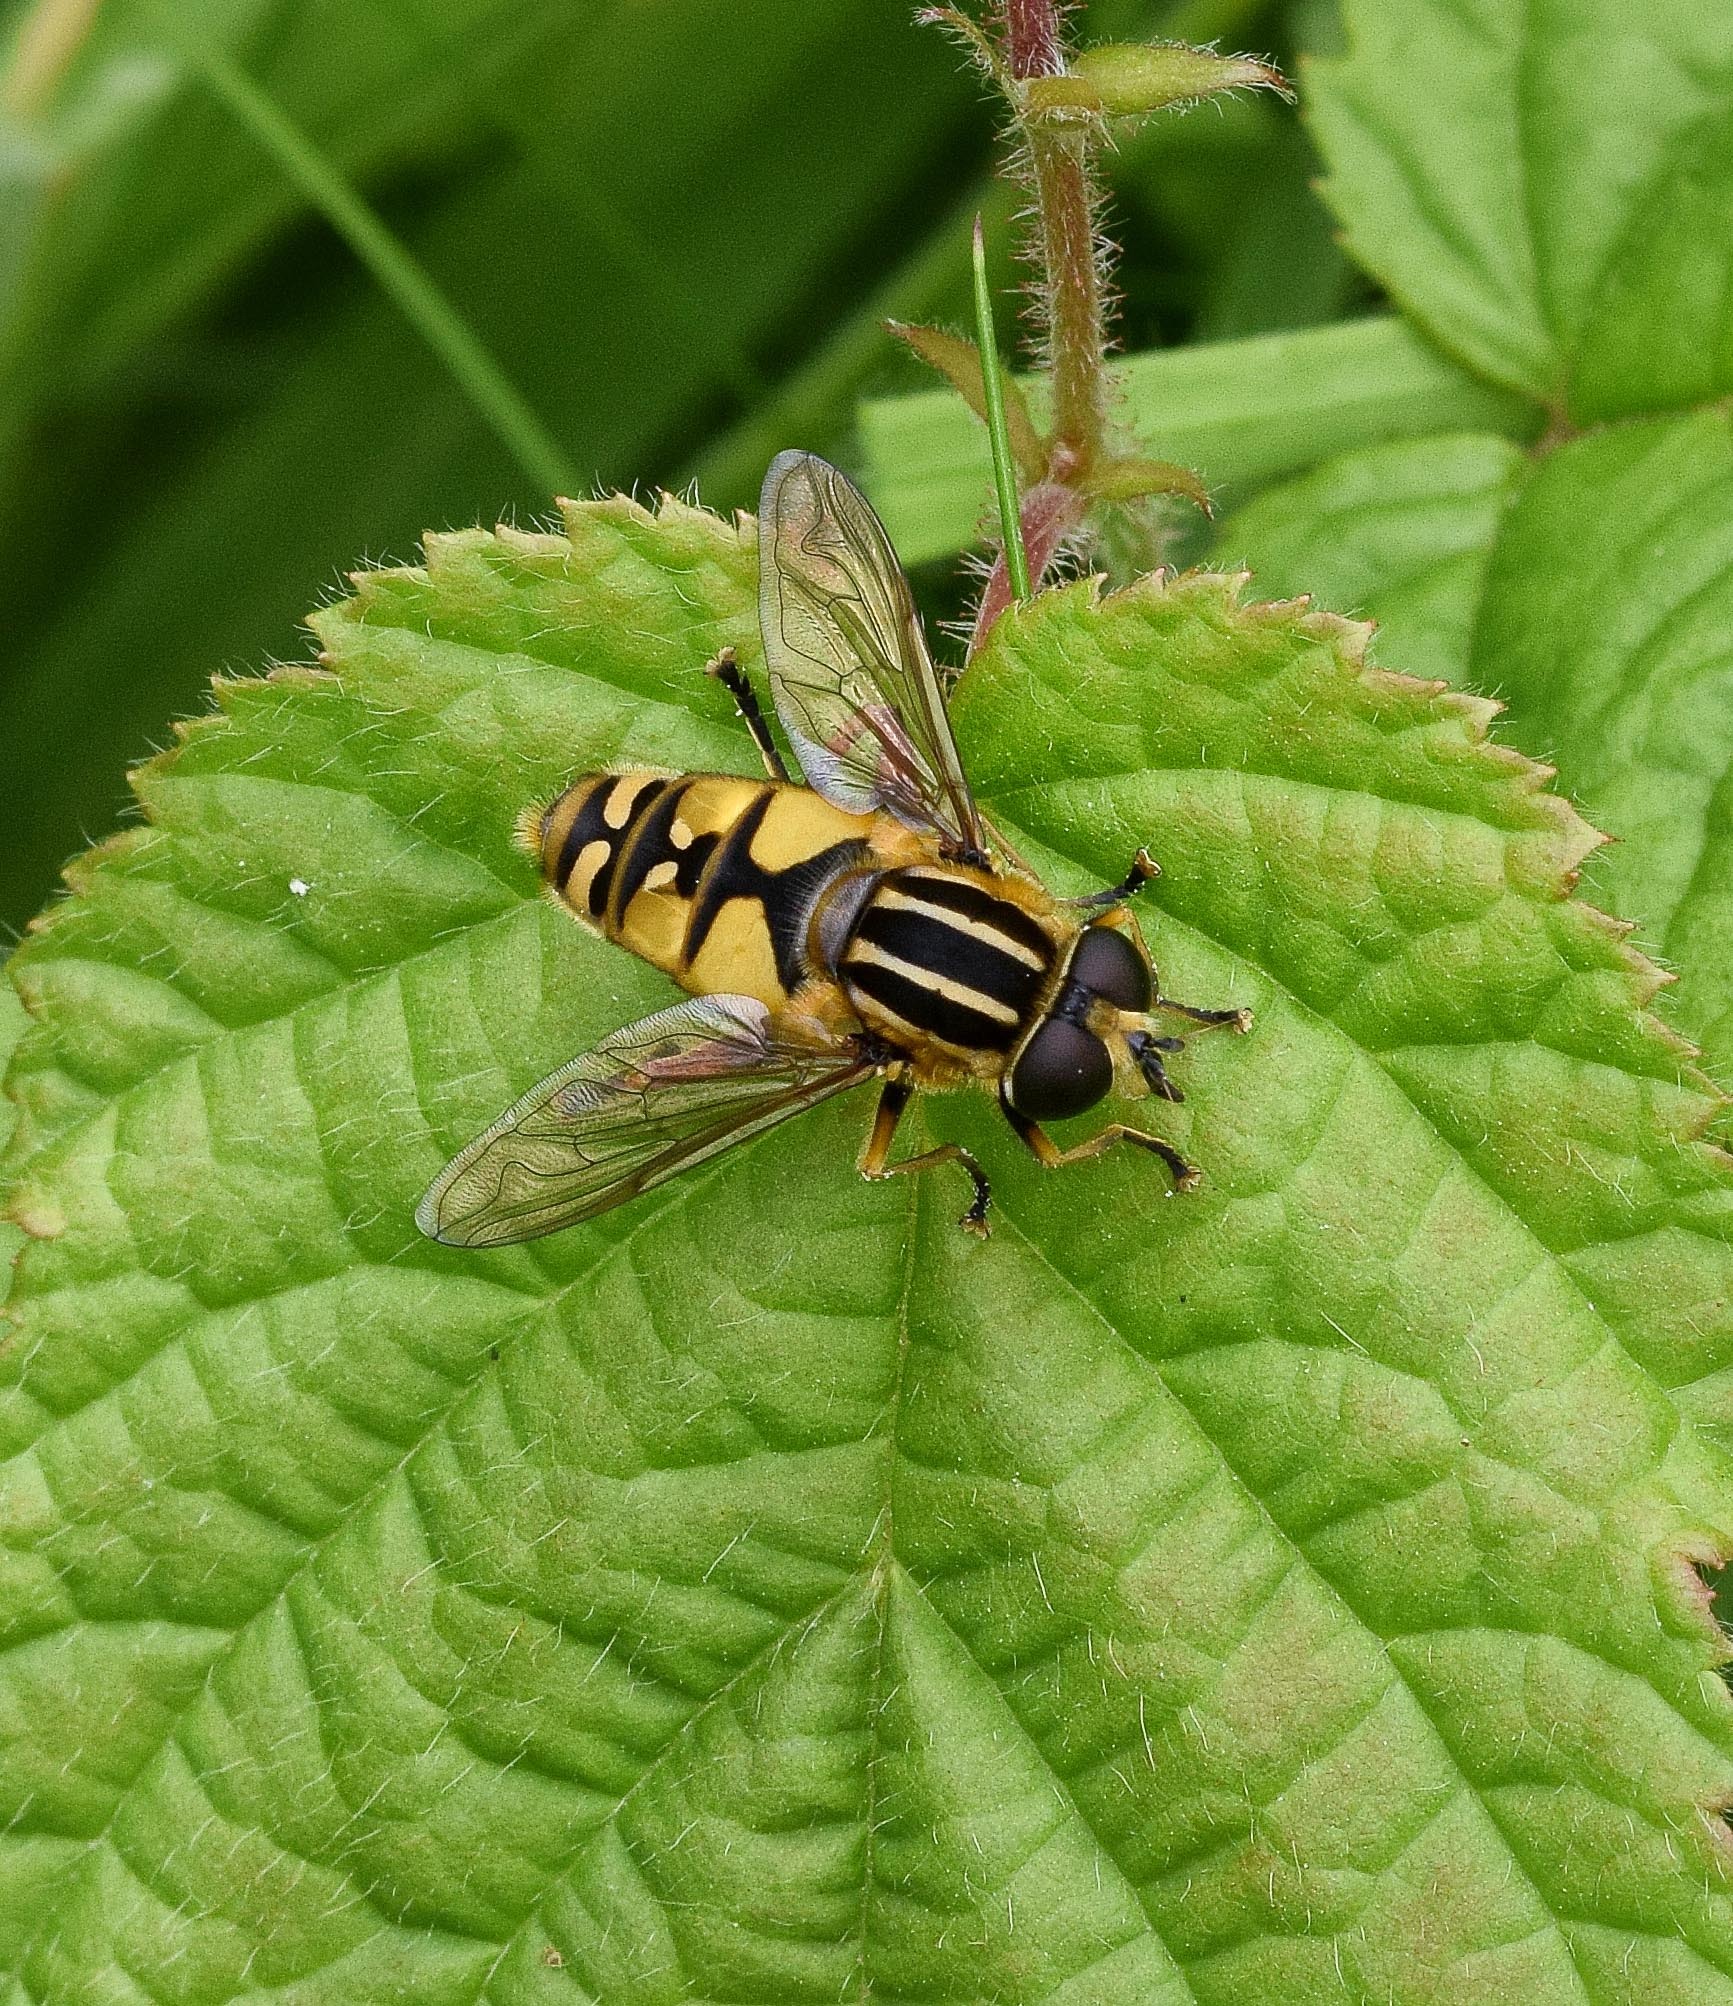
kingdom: Animalia
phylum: Arthropoda
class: Insecta
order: Diptera
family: Syrphidae
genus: Helophilus
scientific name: Helophilus pendulus
